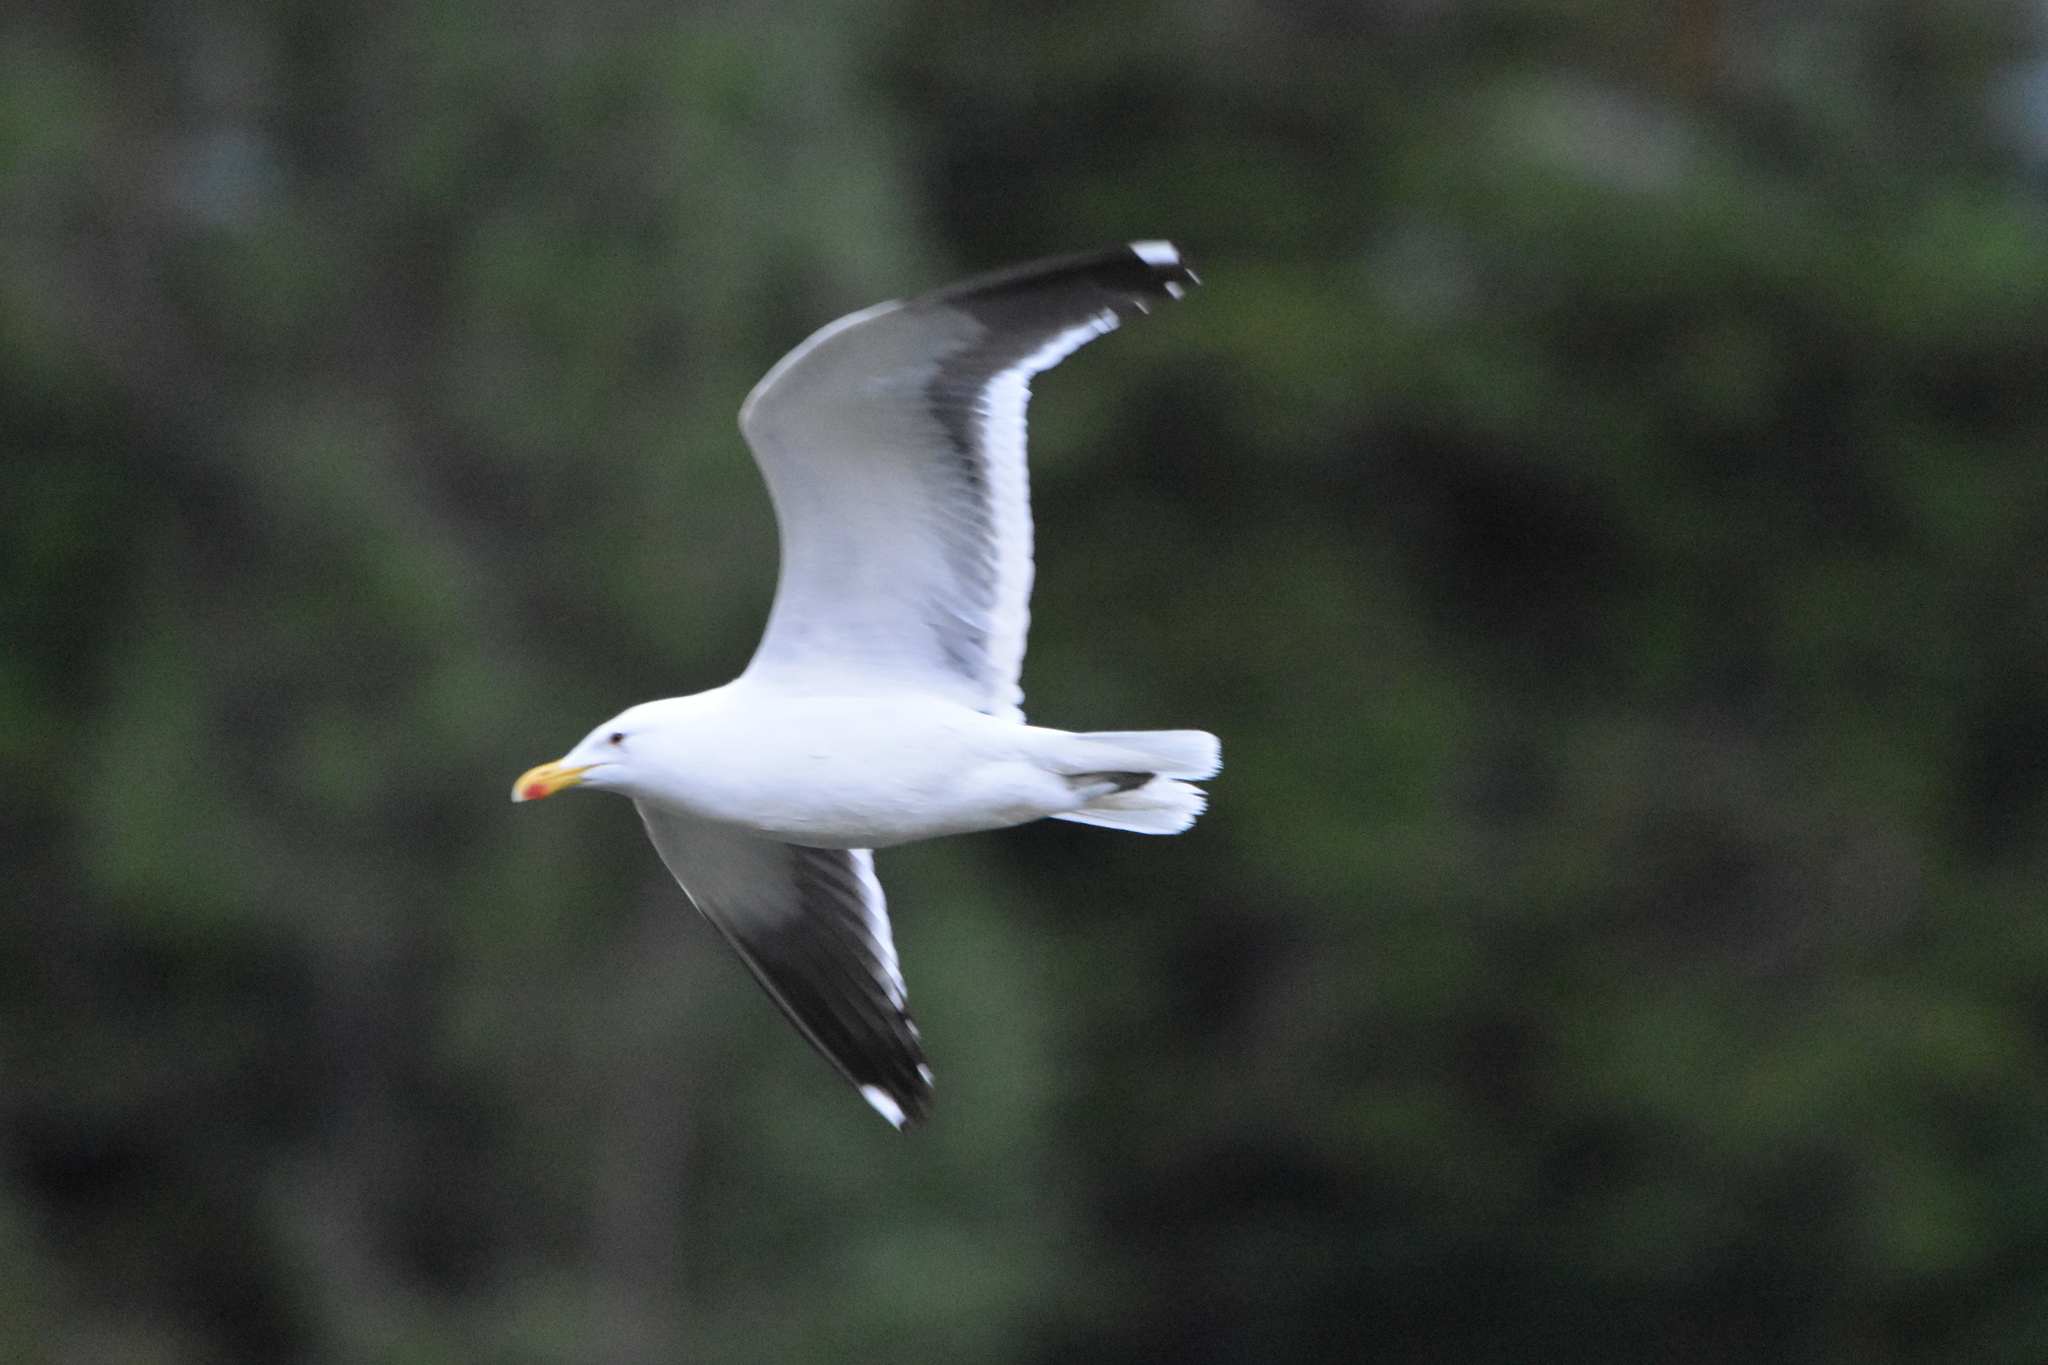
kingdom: Animalia
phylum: Chordata
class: Aves
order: Charadriiformes
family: Laridae
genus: Larus
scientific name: Larus dominicanus
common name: Kelp gull
